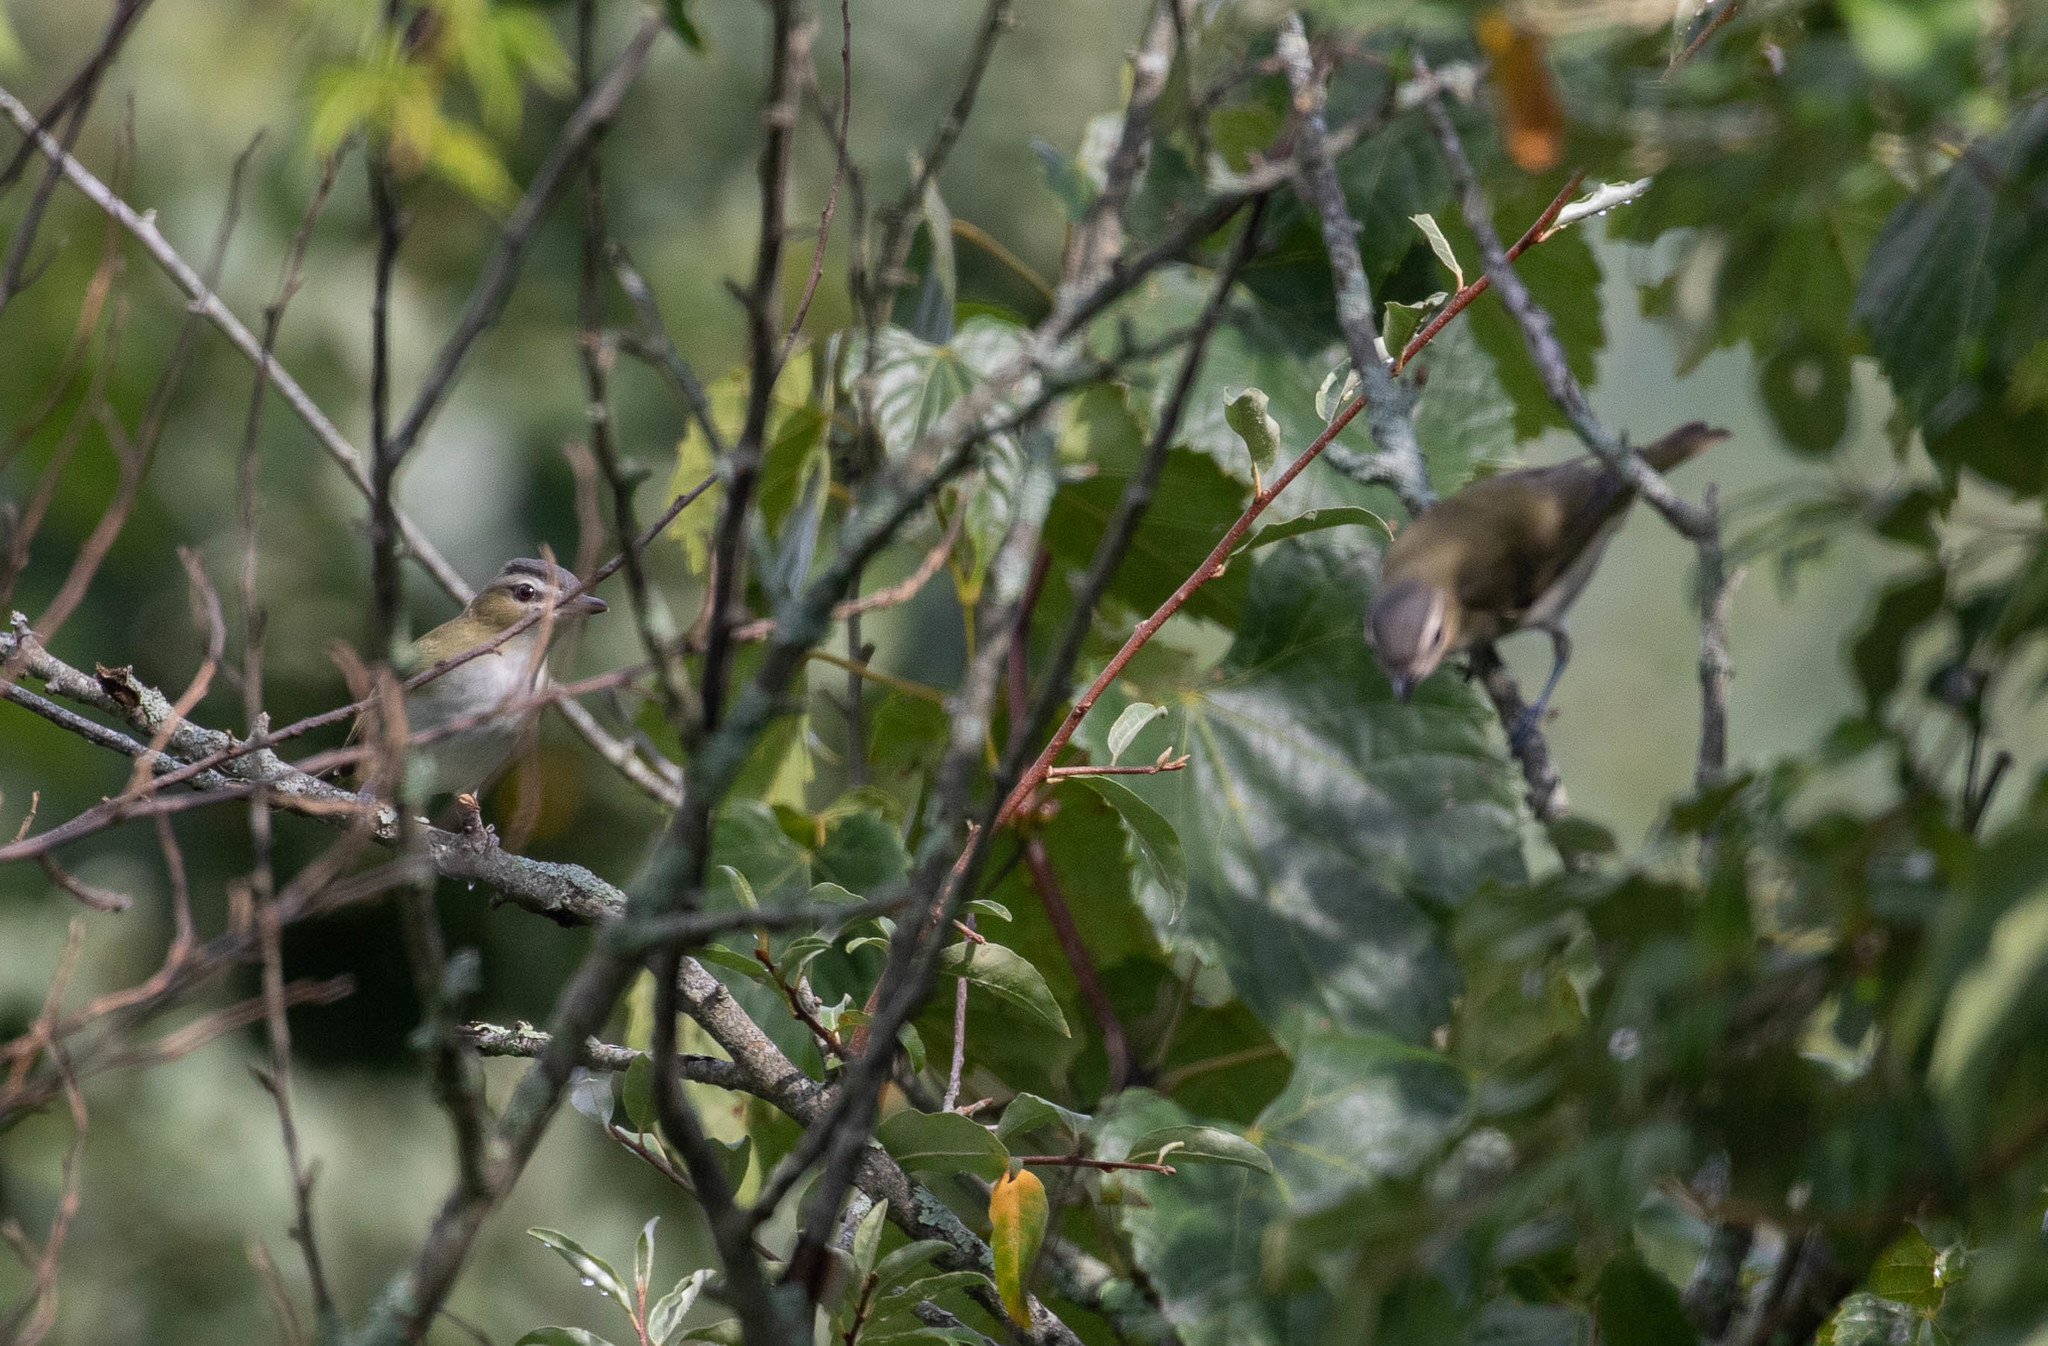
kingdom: Animalia
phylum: Chordata
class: Aves
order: Passeriformes
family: Vireonidae
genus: Vireo
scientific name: Vireo olivaceus
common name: Red-eyed vireo
